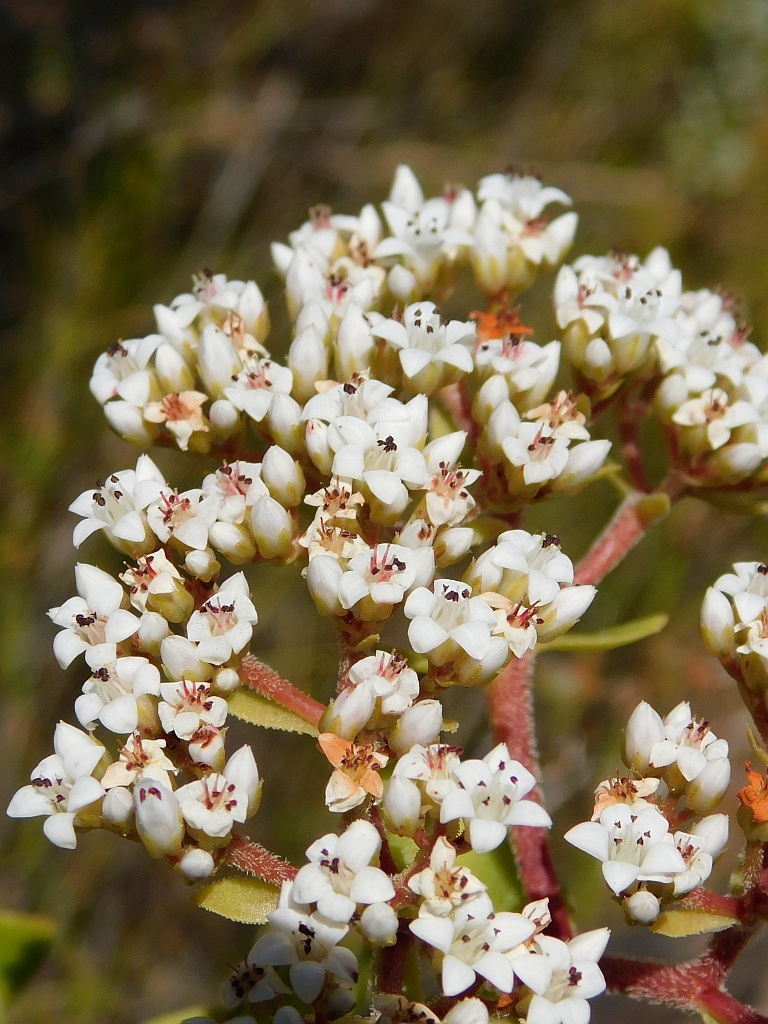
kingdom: Plantae
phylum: Tracheophyta
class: Magnoliopsida
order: Saxifragales
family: Crassulaceae
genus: Crassula
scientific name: Crassula undulata
